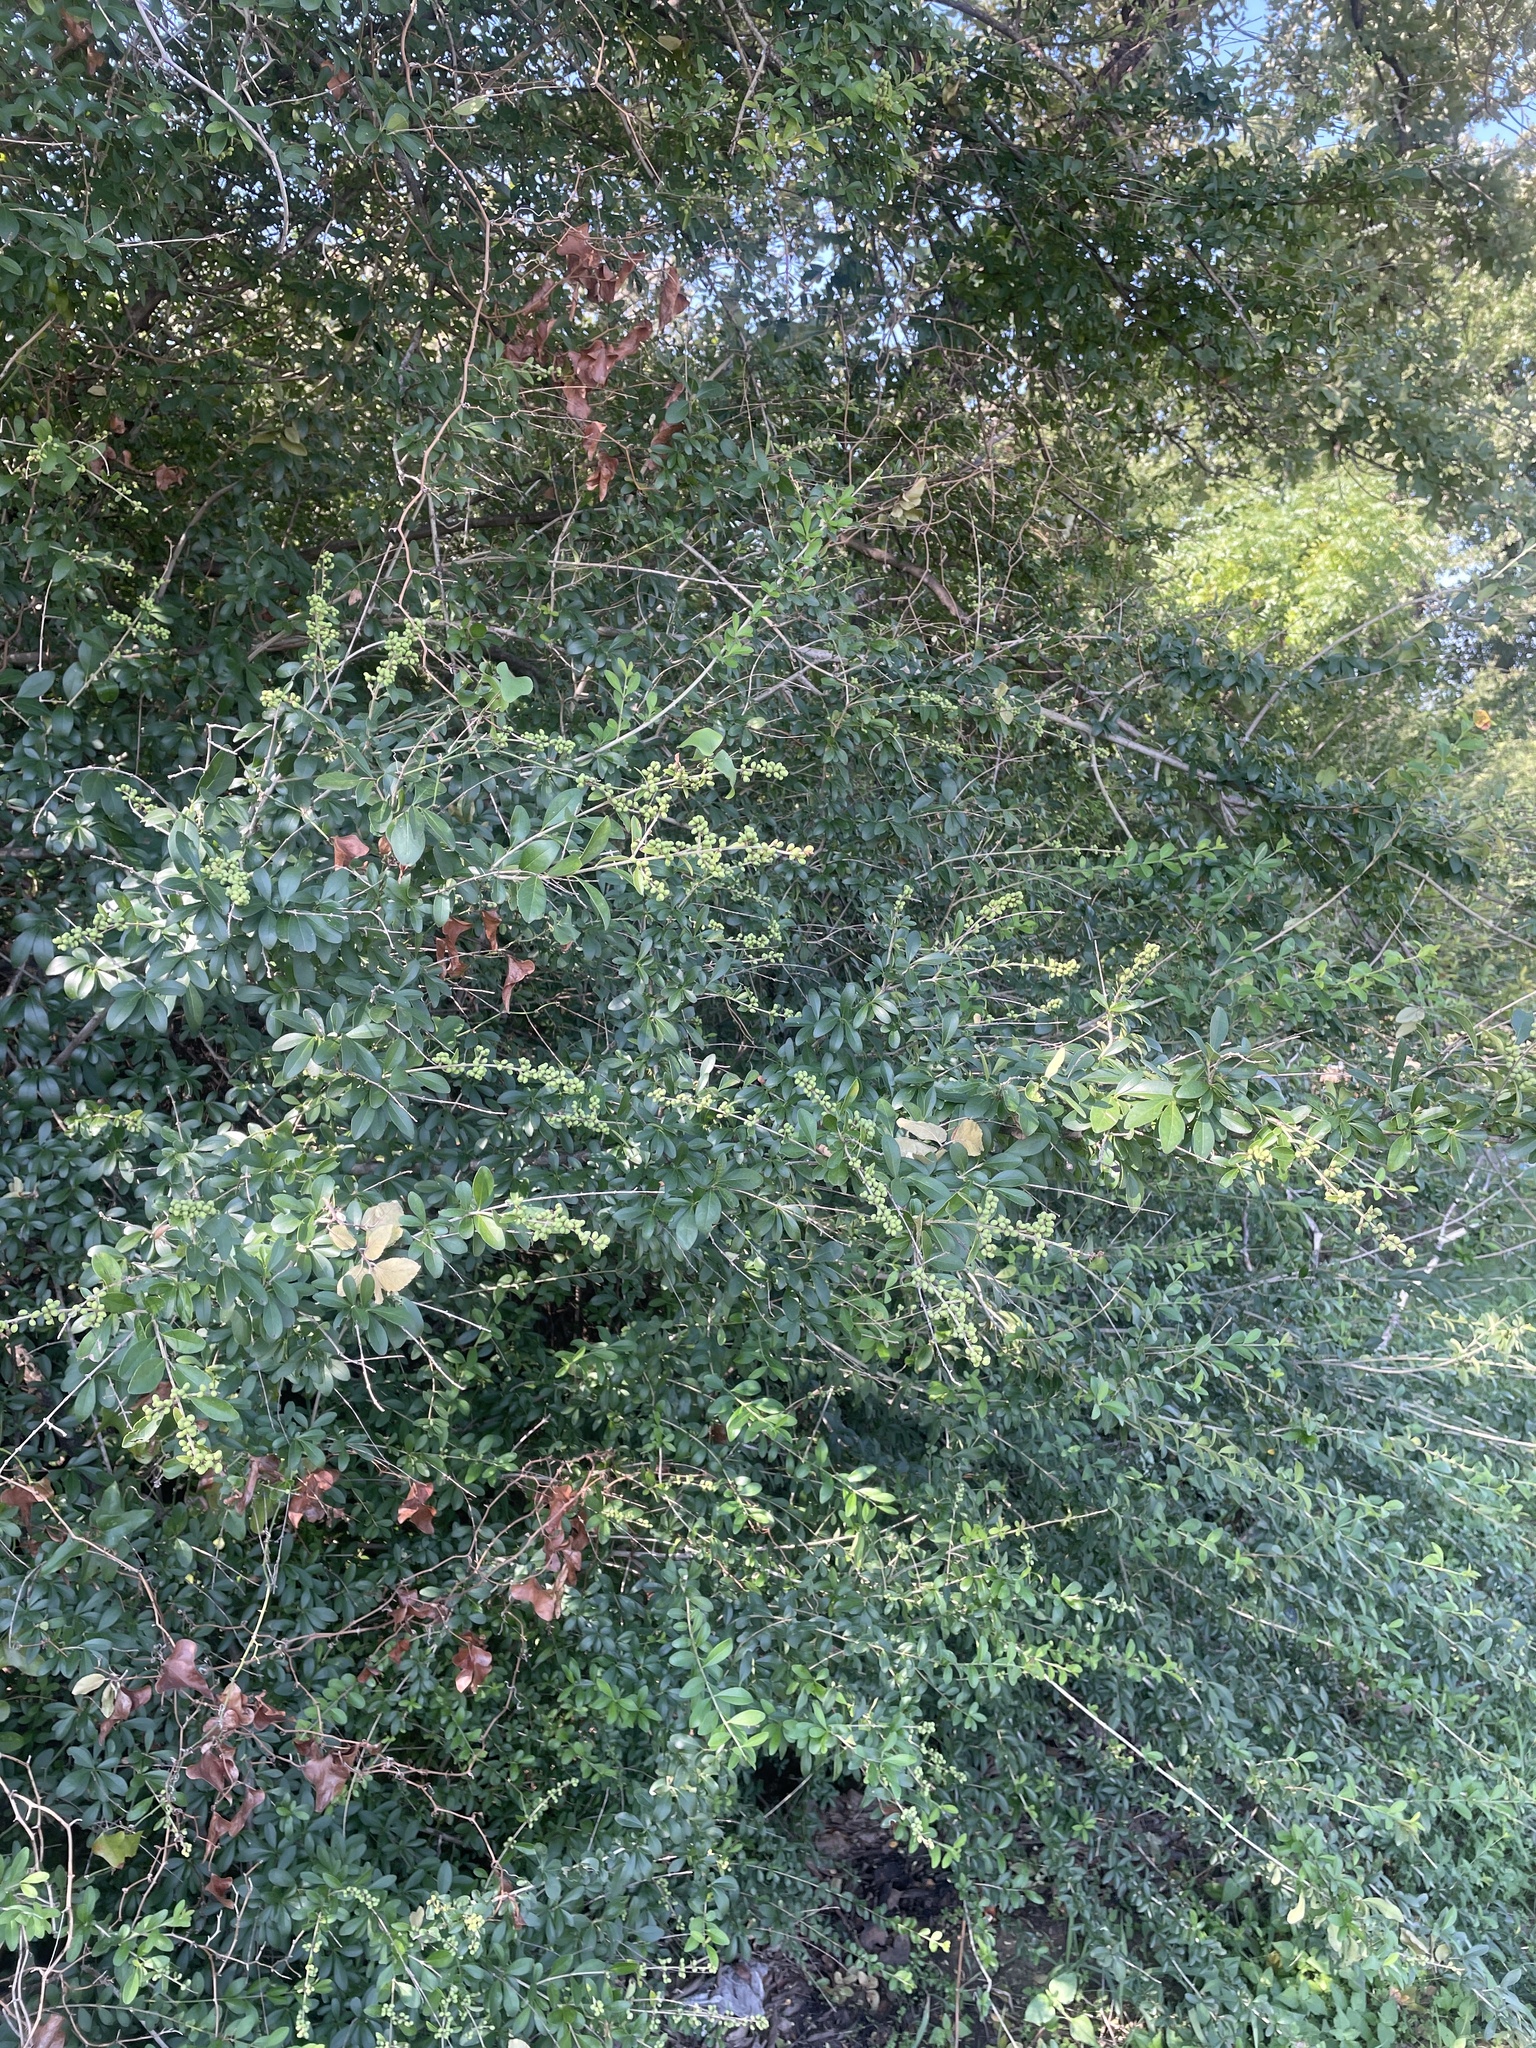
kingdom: Plantae
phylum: Tracheophyta
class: Magnoliopsida
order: Lamiales
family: Oleaceae
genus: Ligustrum
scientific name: Ligustrum quihoui
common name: Waxyleaf privet
